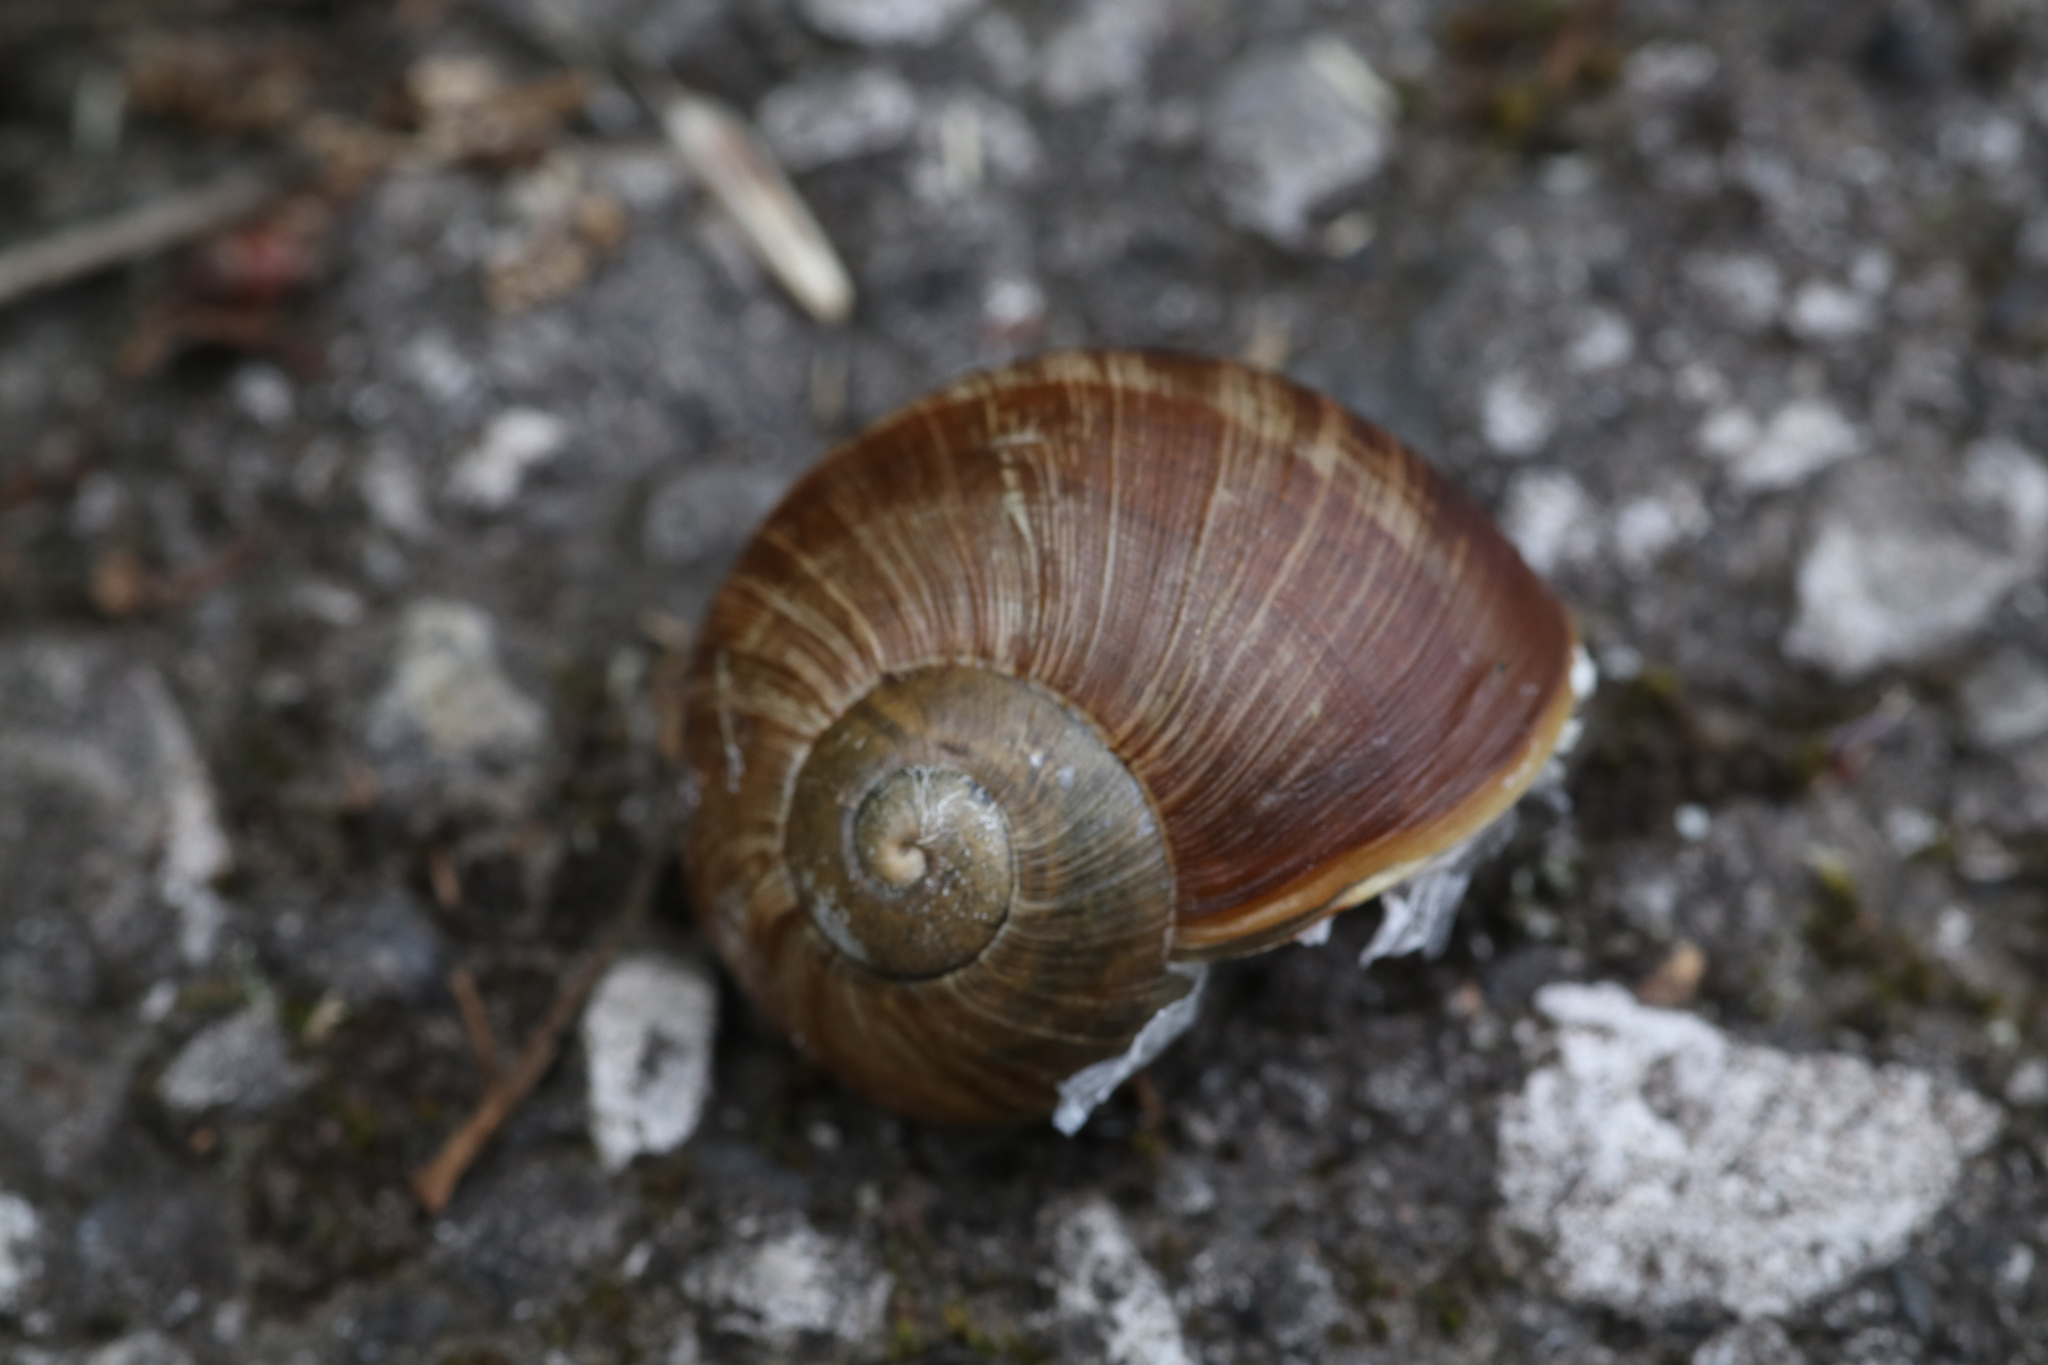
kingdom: Animalia
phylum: Mollusca
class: Gastropoda
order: Stylommatophora
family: Helicidae
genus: Helix
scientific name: Helix pomatia
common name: Roman snail
